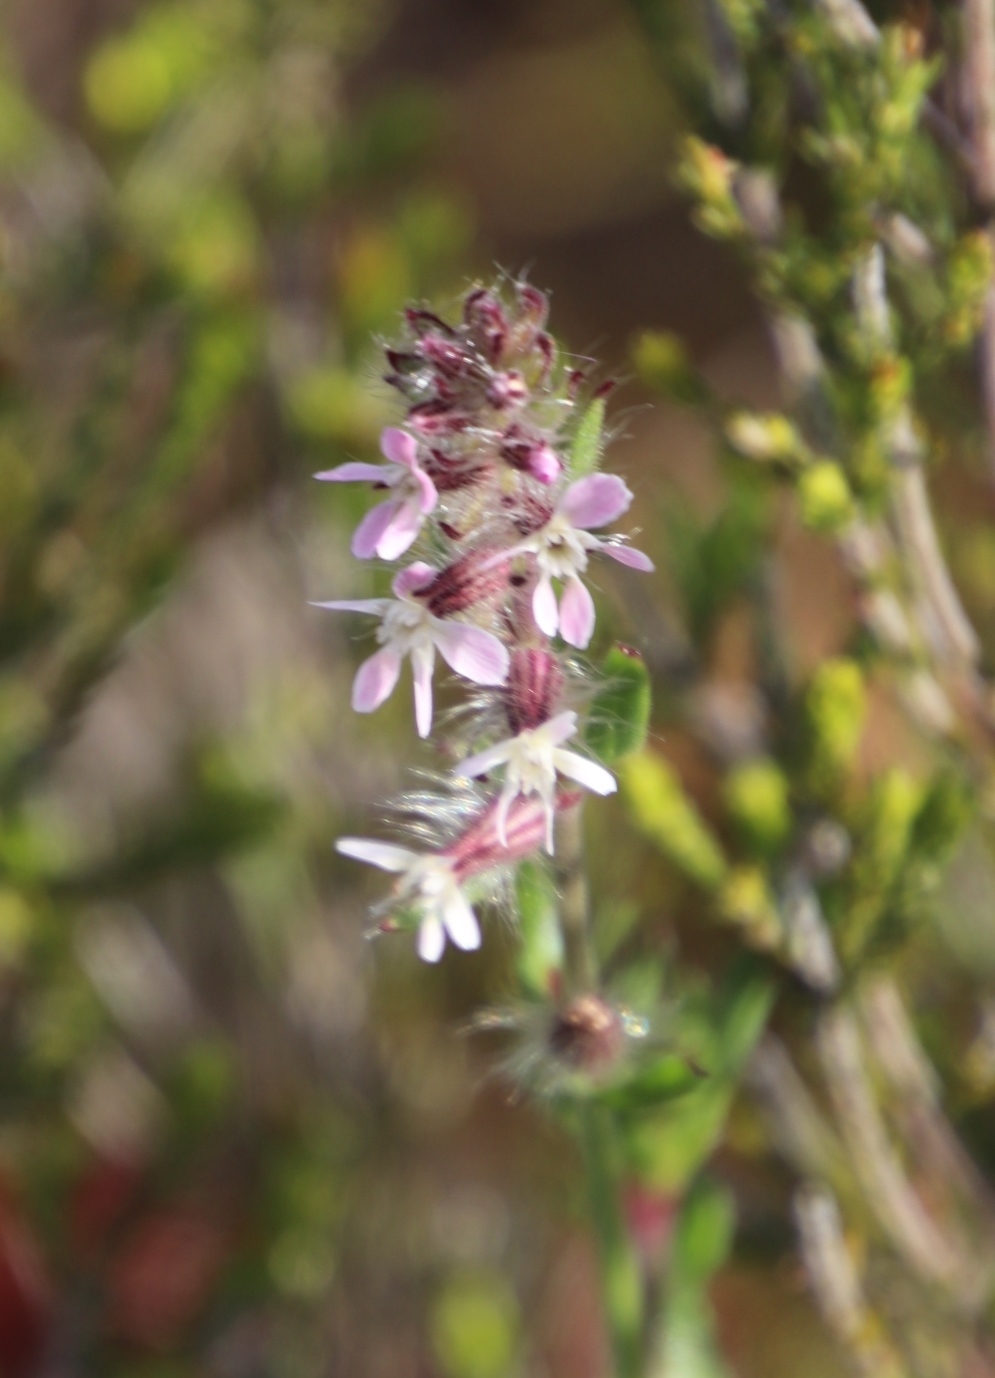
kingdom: Plantae
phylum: Tracheophyta
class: Magnoliopsida
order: Caryophyllales
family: Caryophyllaceae
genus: Silene
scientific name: Silene gallica
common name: Small-flowered catchfly
